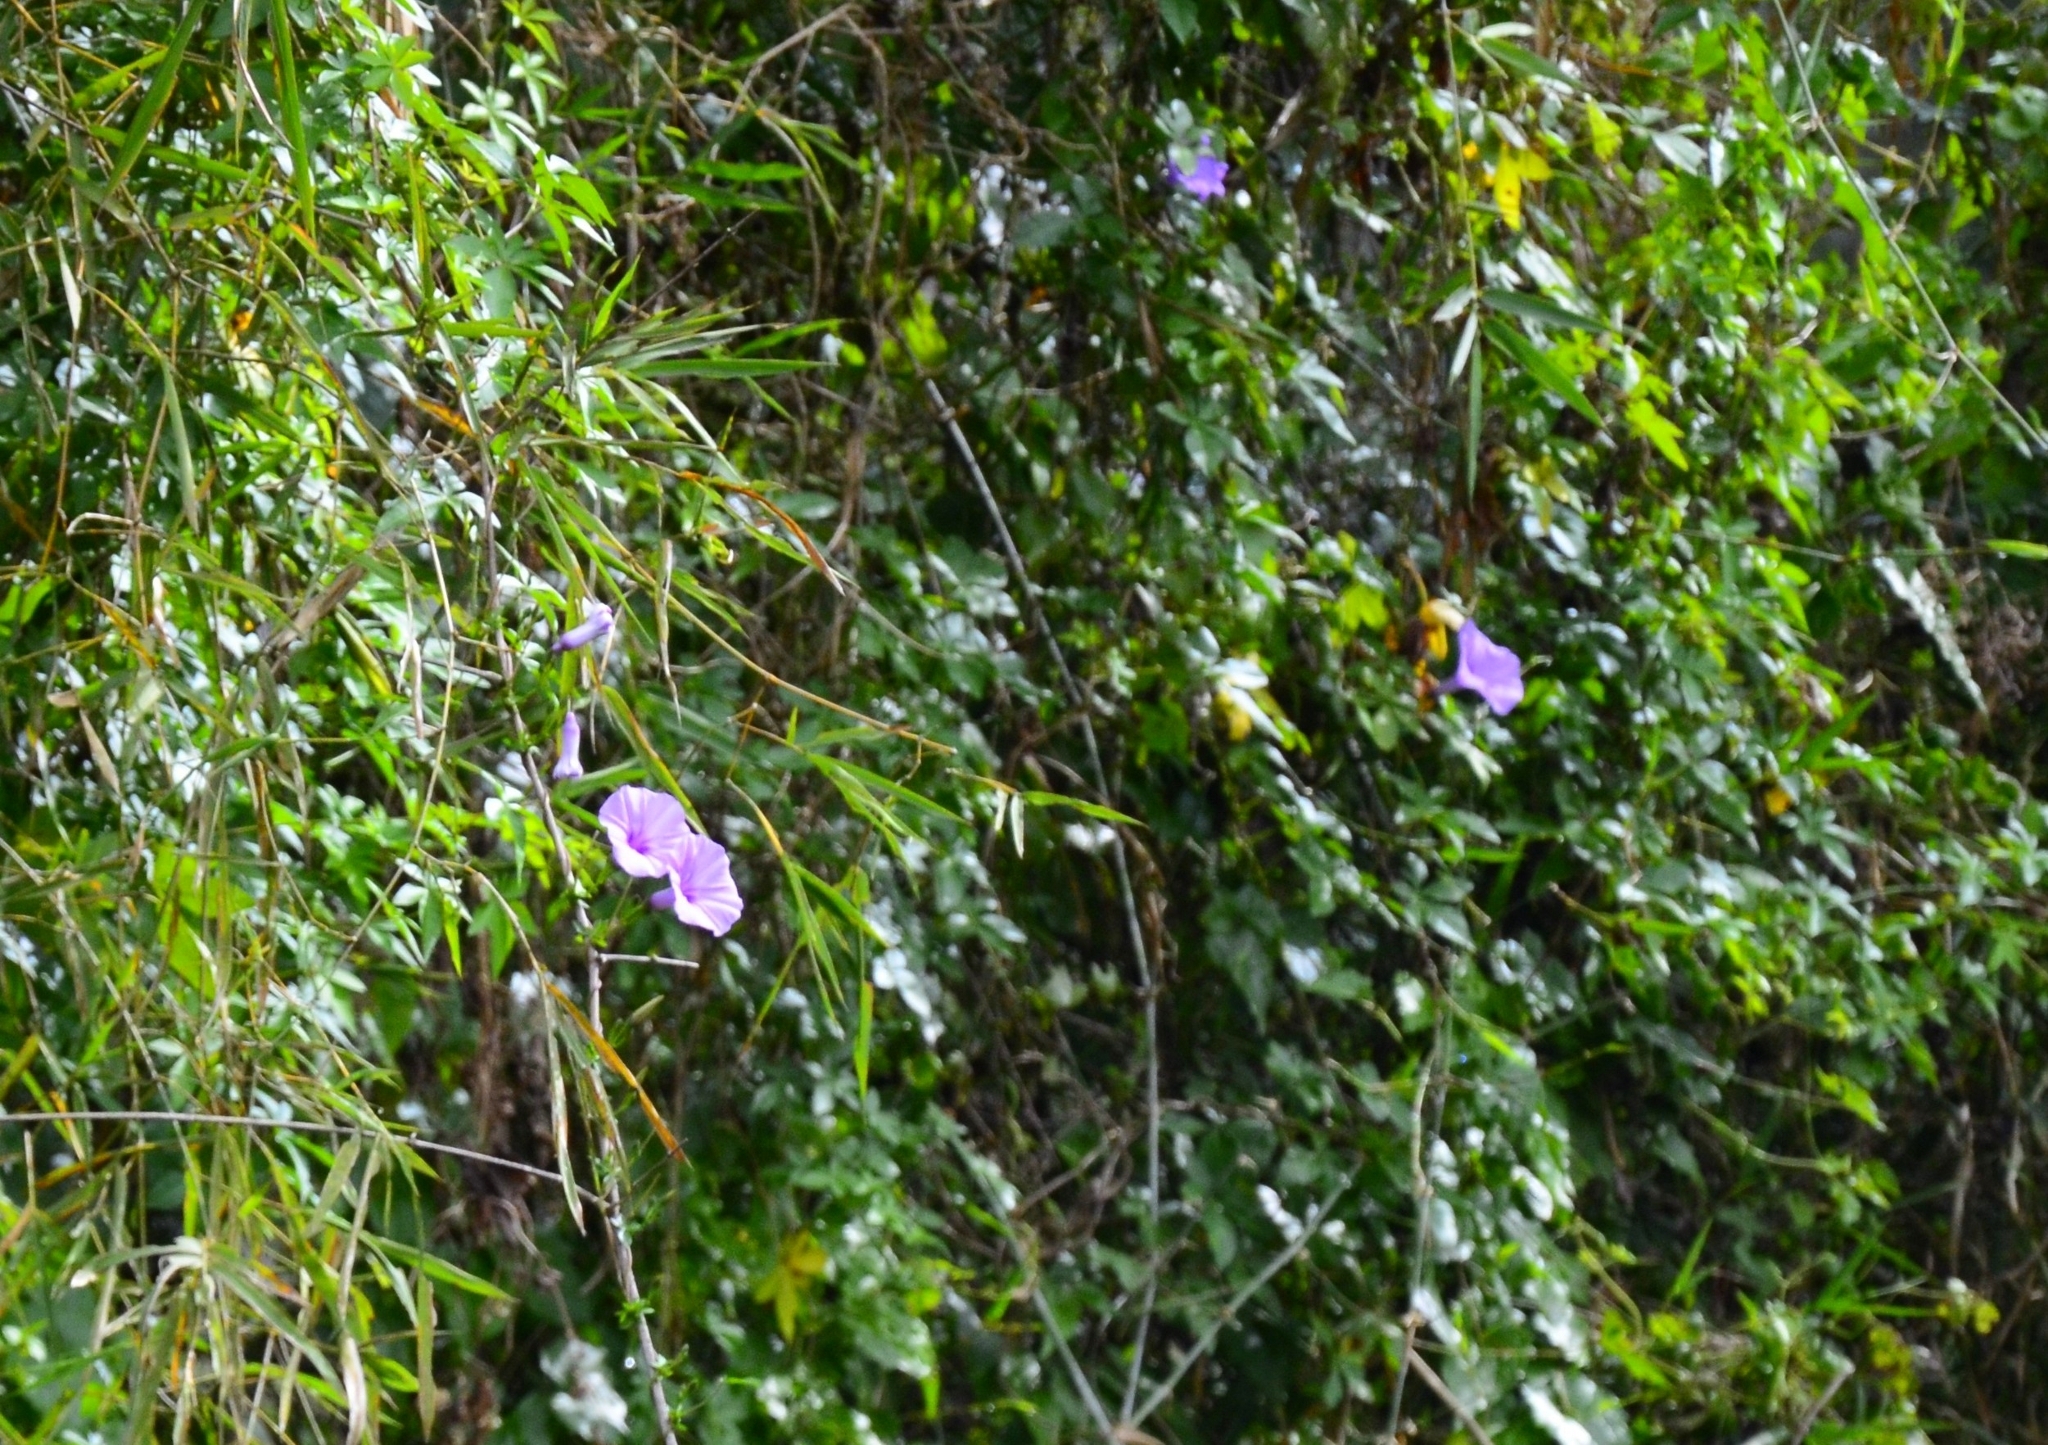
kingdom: Plantae
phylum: Tracheophyta
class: Magnoliopsida
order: Solanales
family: Convolvulaceae
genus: Ipomoea
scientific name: Ipomoea cairica
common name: Mile a minute vine
